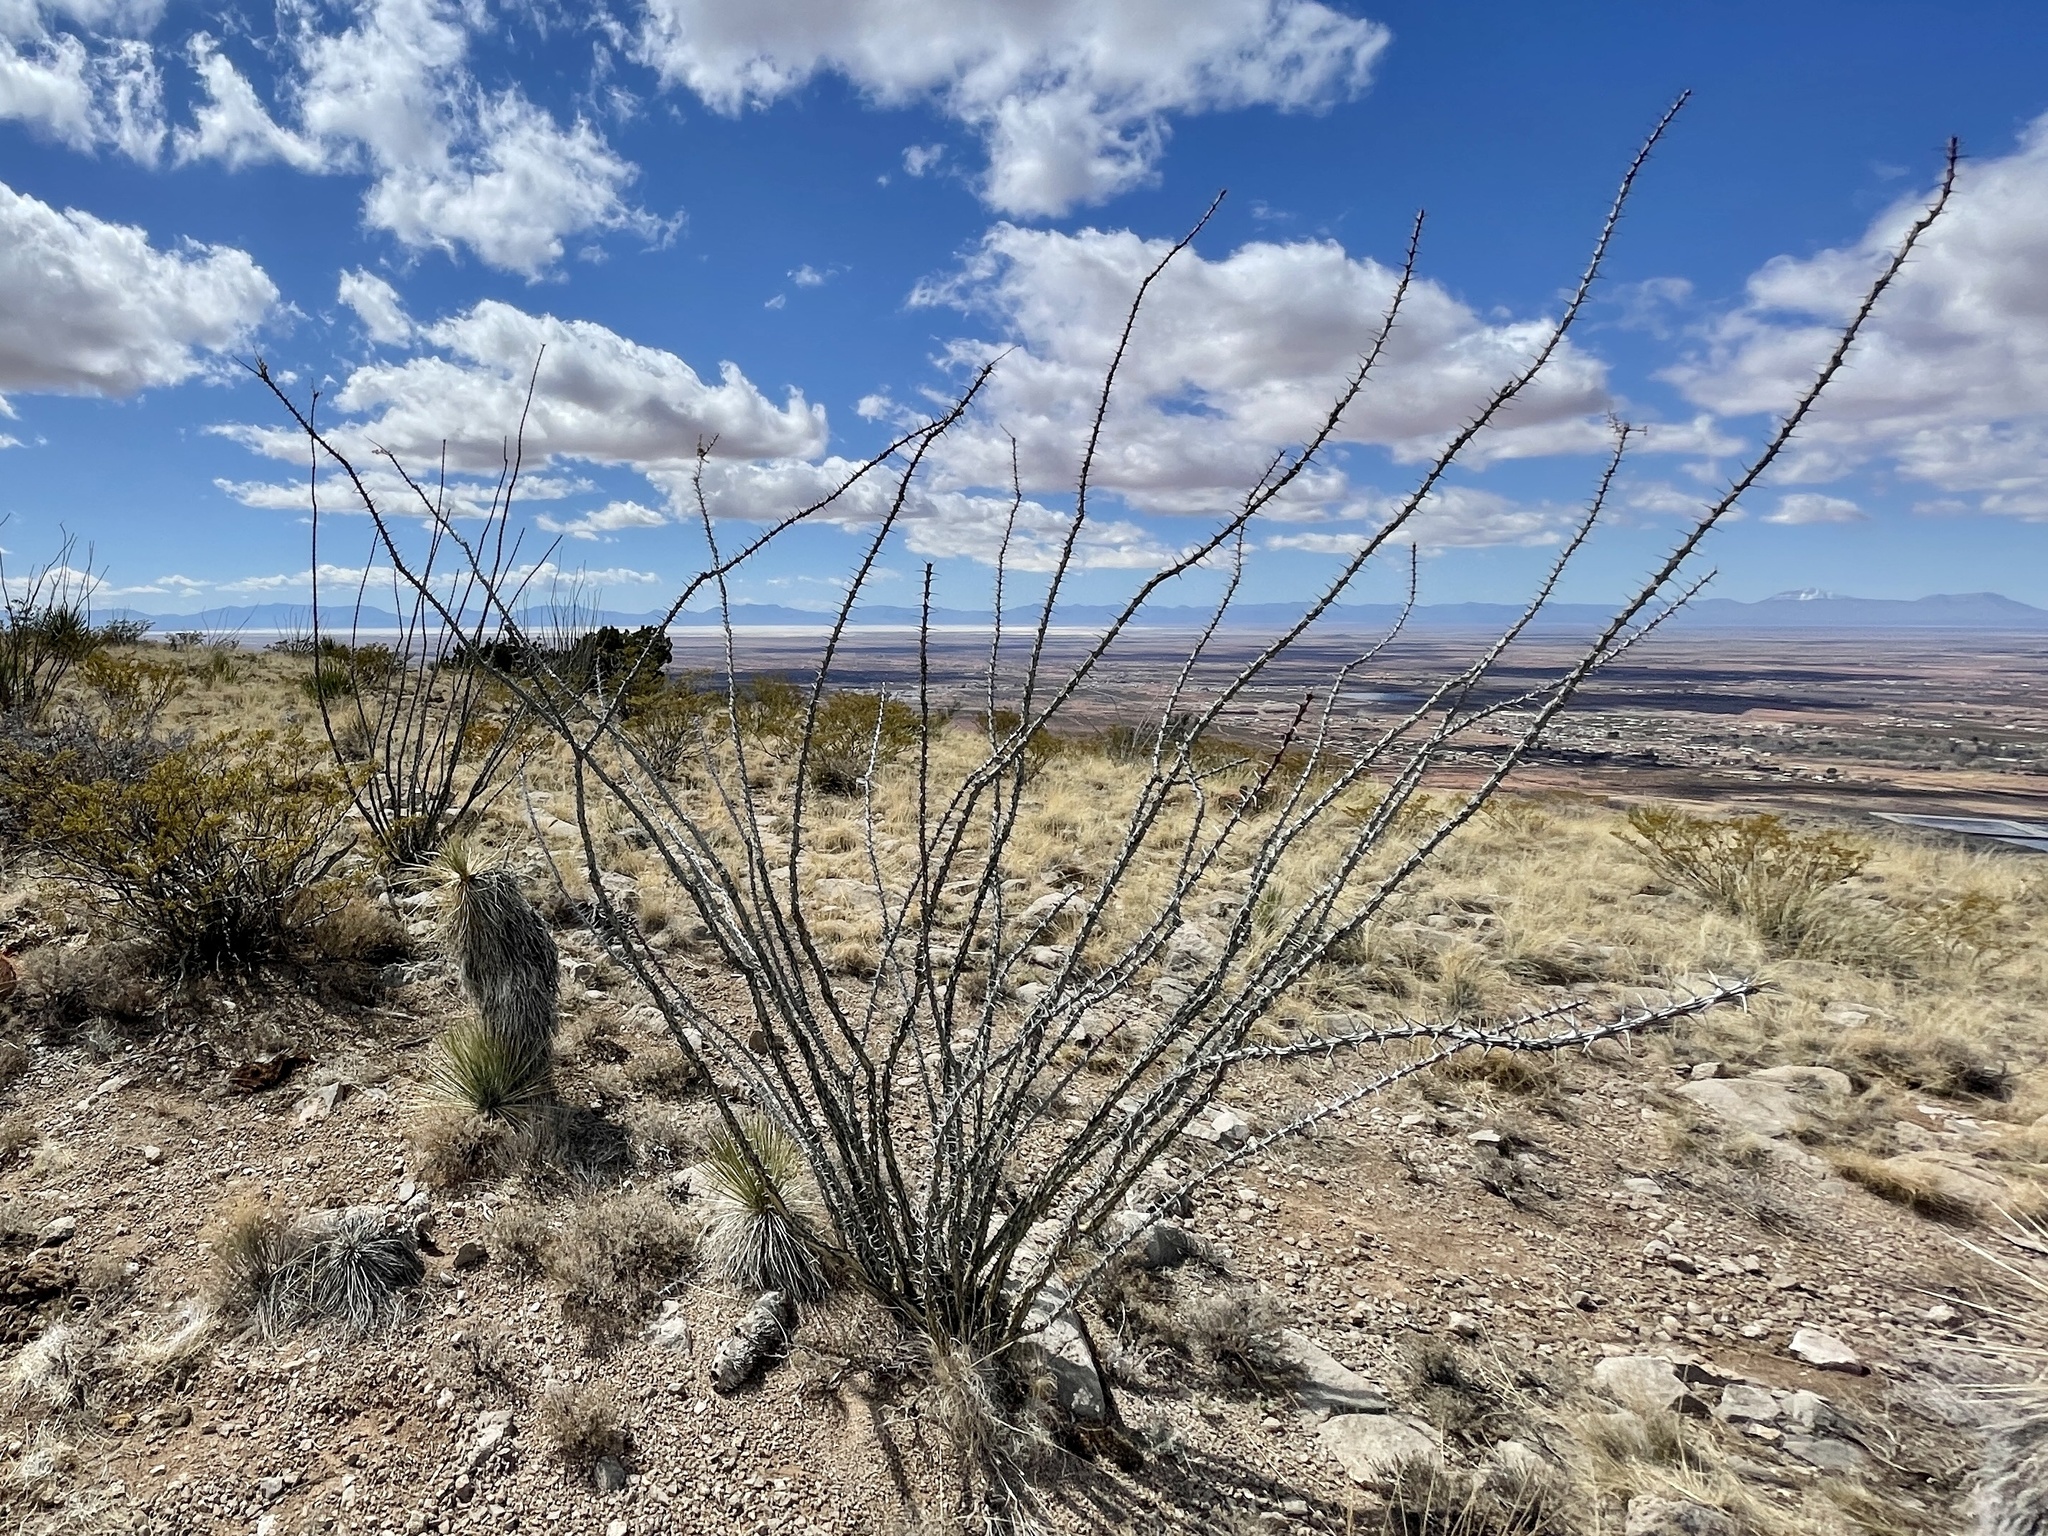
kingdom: Plantae
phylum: Tracheophyta
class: Magnoliopsida
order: Ericales
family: Fouquieriaceae
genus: Fouquieria
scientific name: Fouquieria splendens
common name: Vine-cactus
